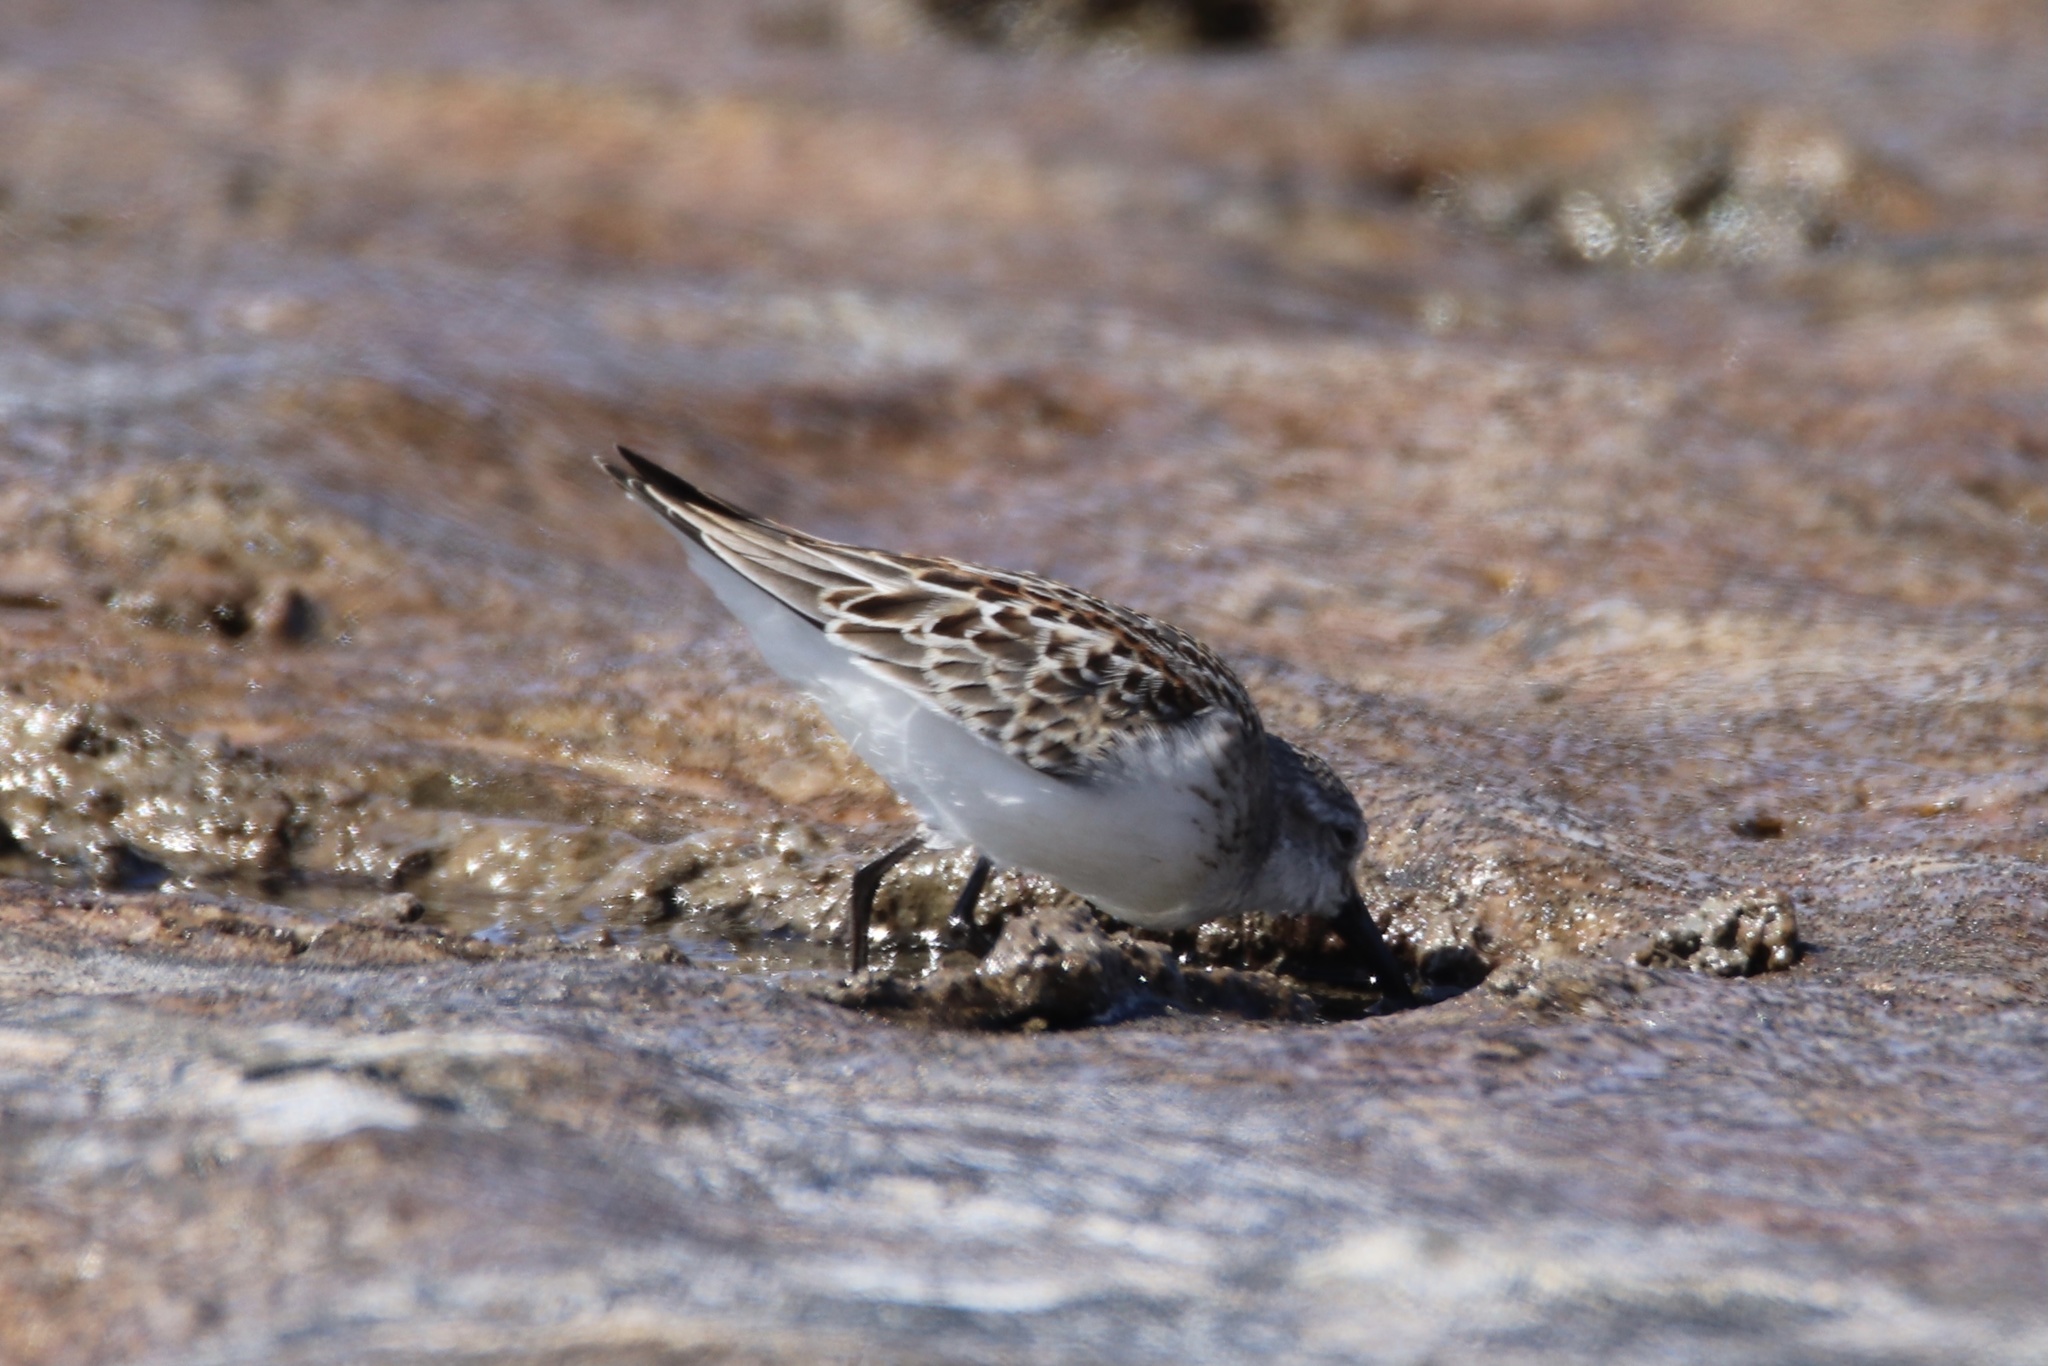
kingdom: Animalia
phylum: Chordata
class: Aves
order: Charadriiformes
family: Scolopacidae
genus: Calidris
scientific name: Calidris mauri
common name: Western sandpiper
